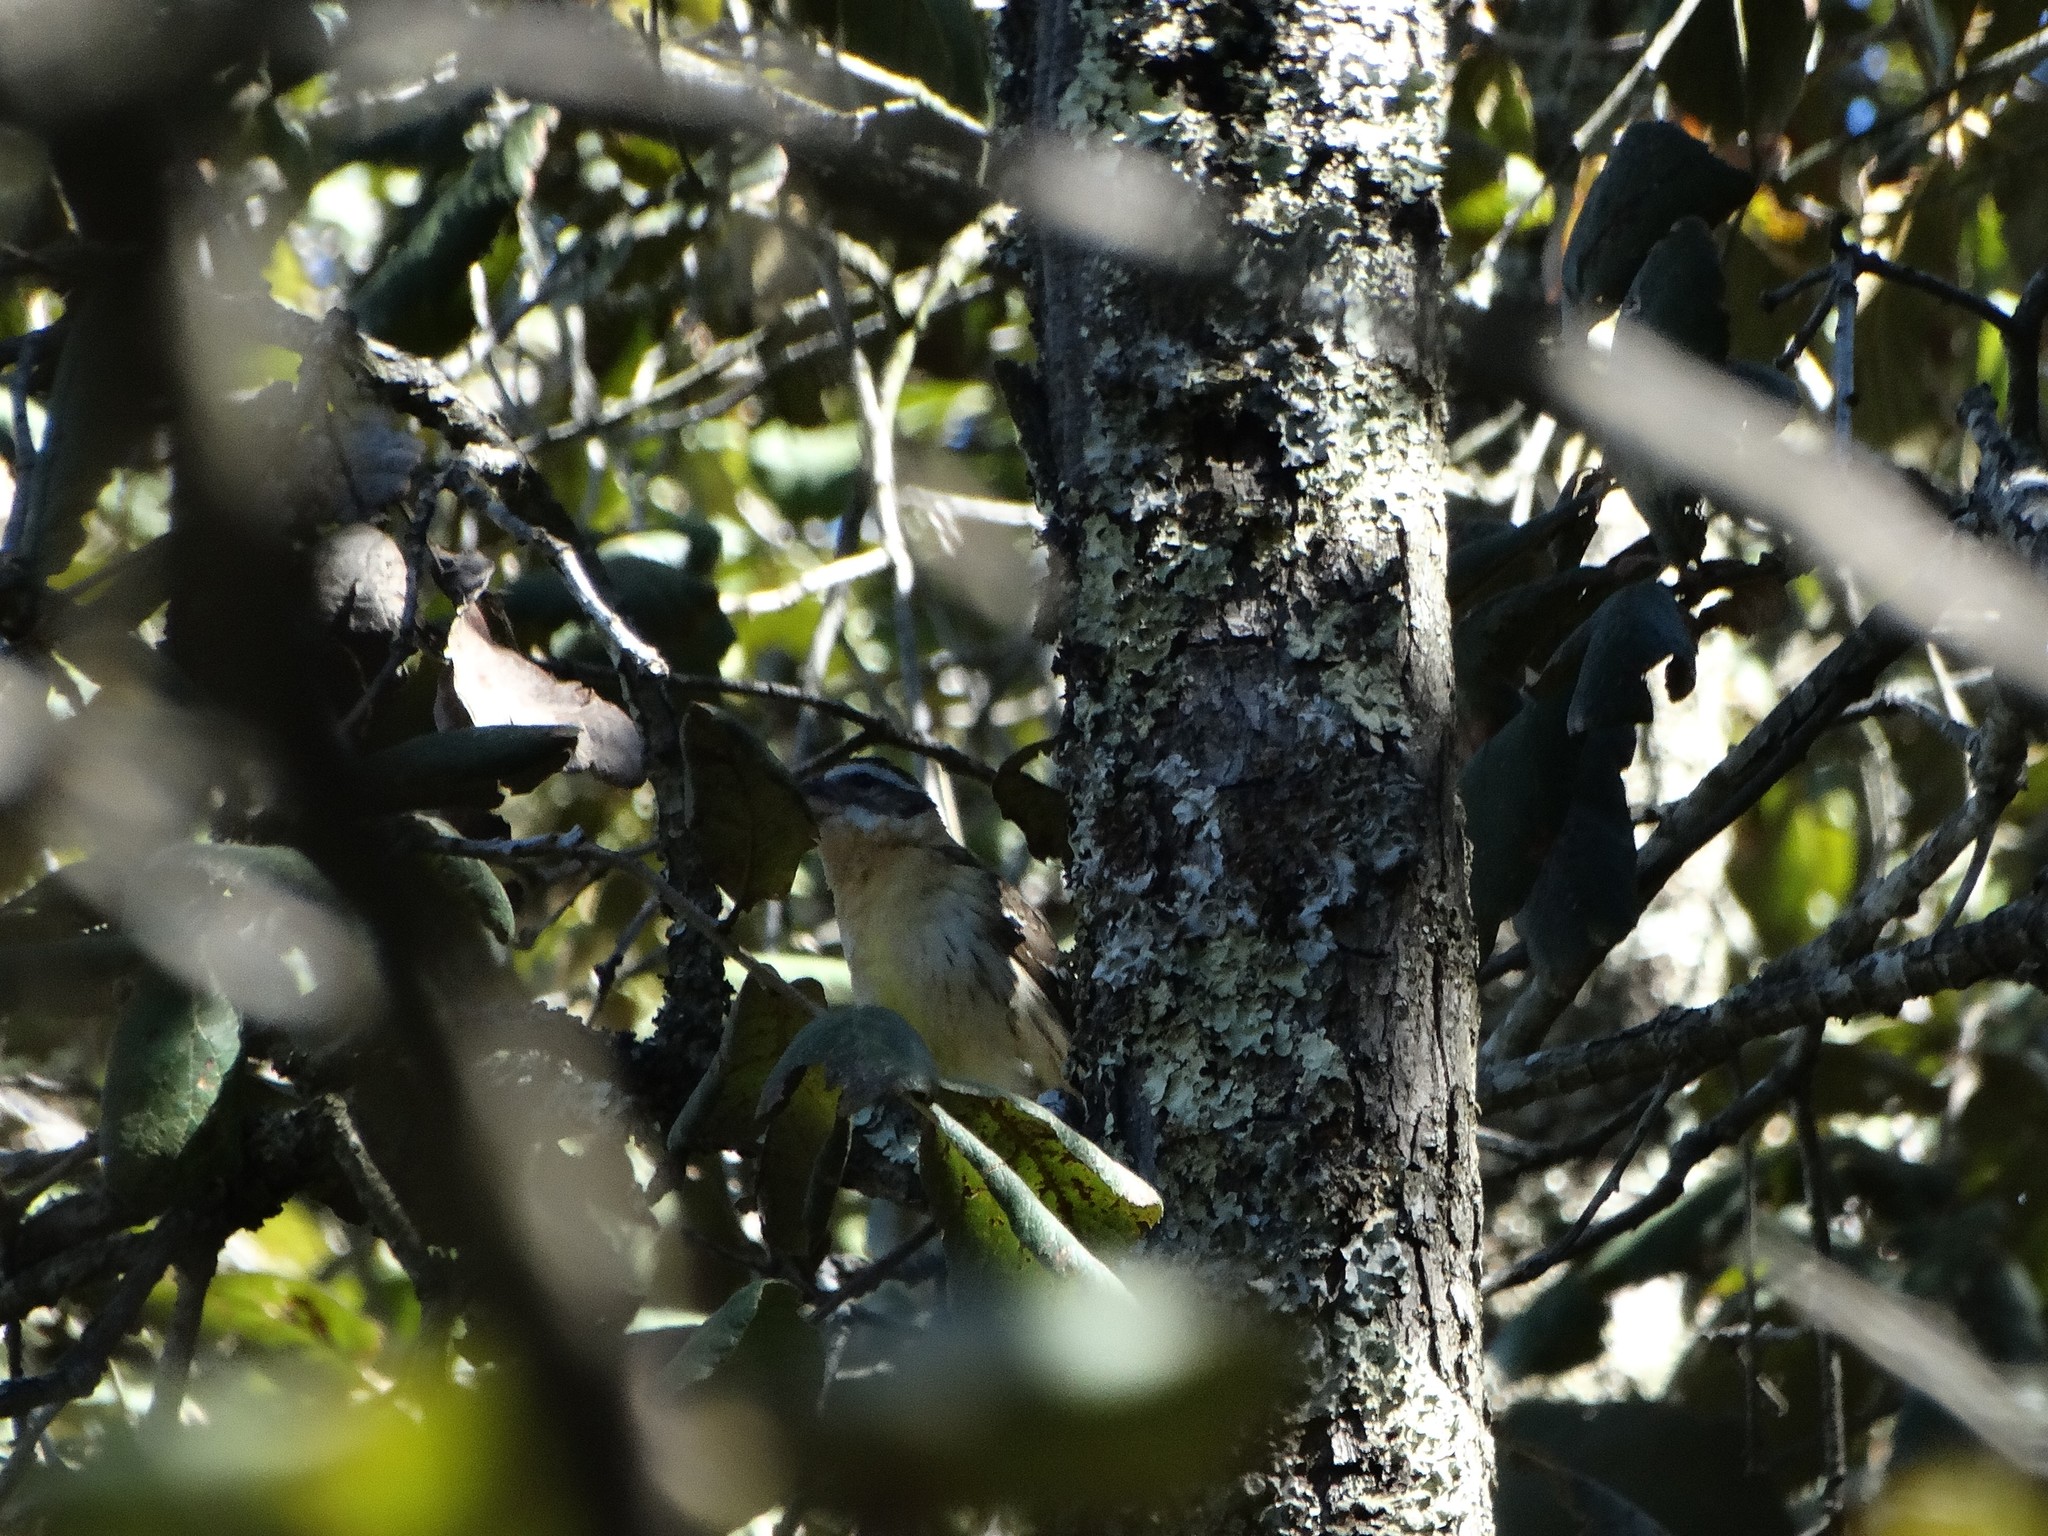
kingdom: Animalia
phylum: Chordata
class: Aves
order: Passeriformes
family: Cardinalidae
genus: Pheucticus
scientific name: Pheucticus melanocephalus
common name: Black-headed grosbeak
